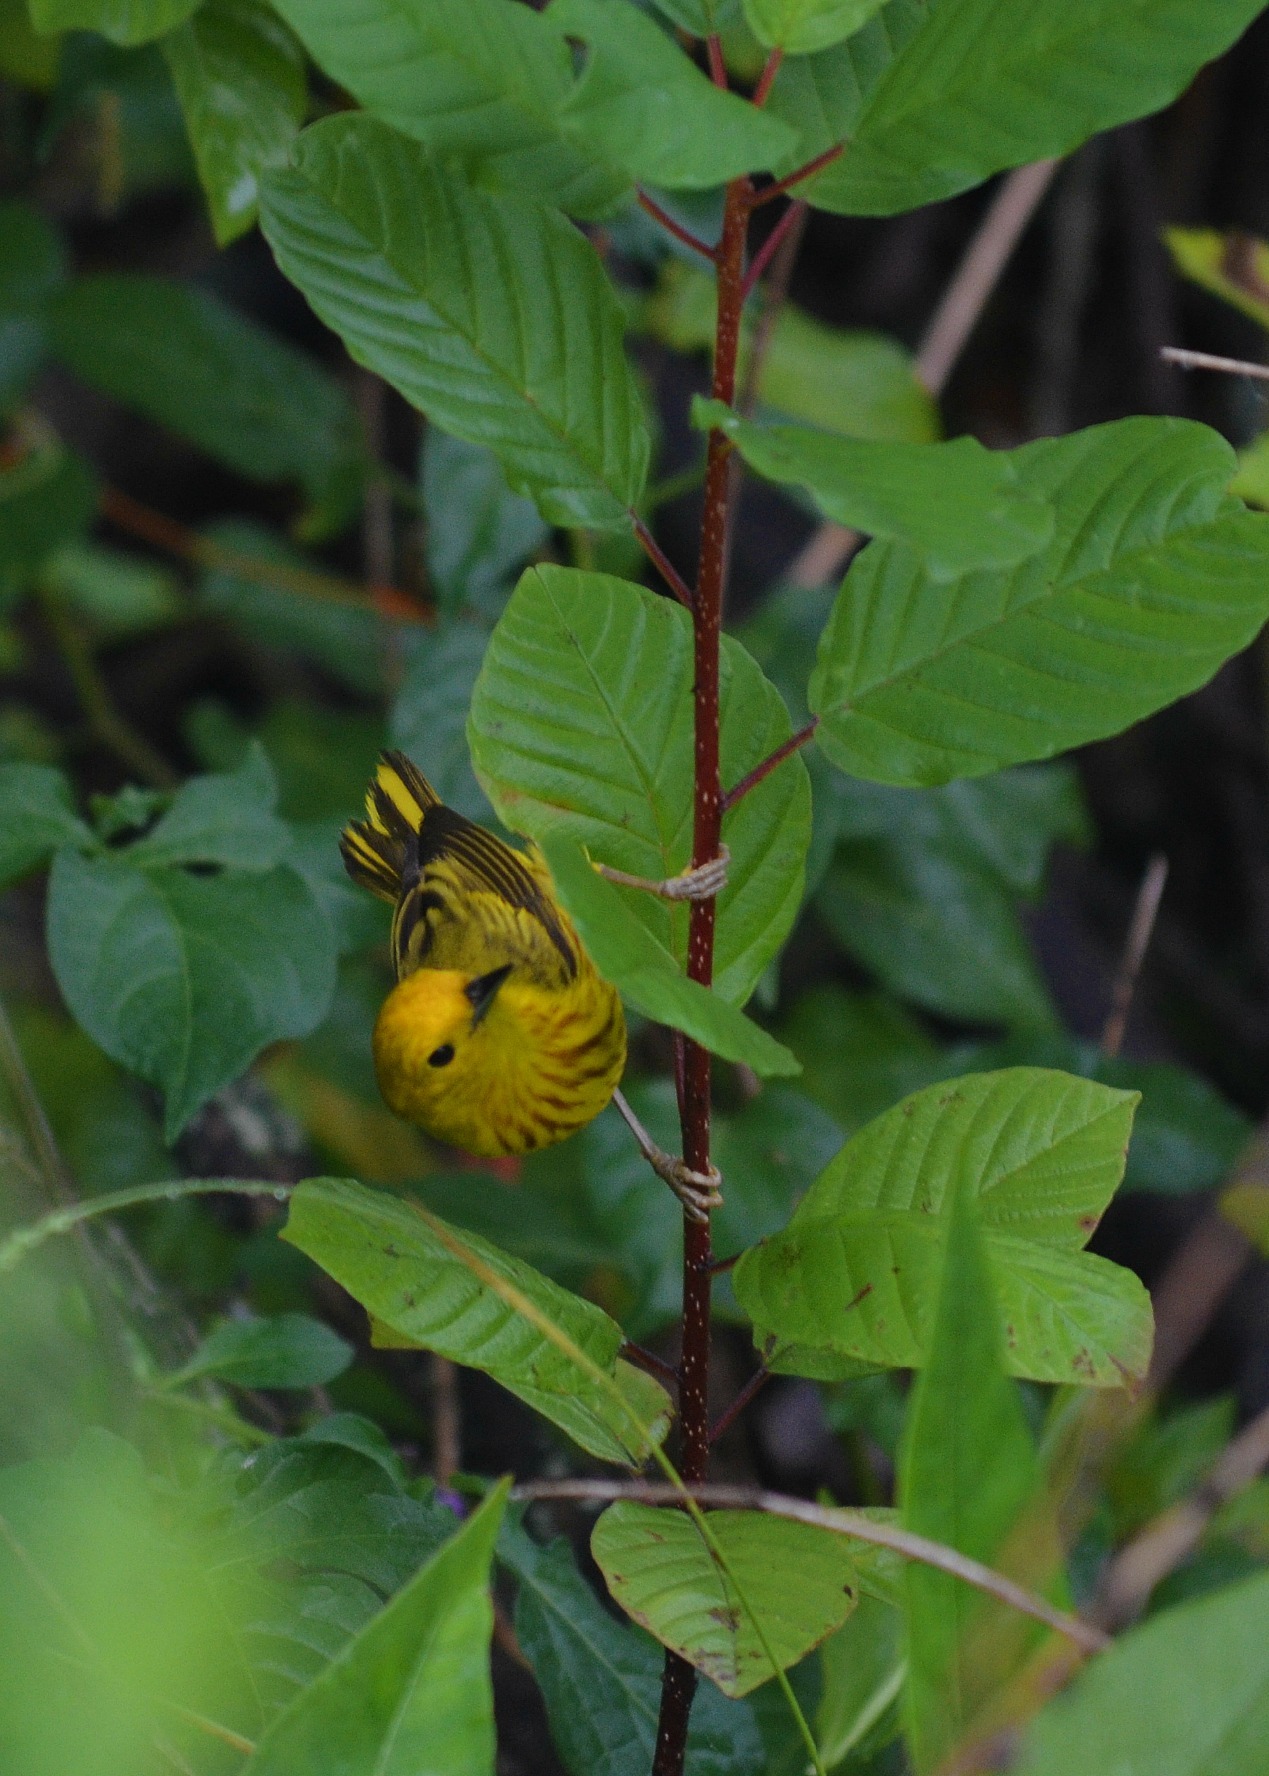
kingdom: Animalia
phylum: Chordata
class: Aves
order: Passeriformes
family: Parulidae
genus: Setophaga
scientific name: Setophaga petechia
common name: Yellow warbler
